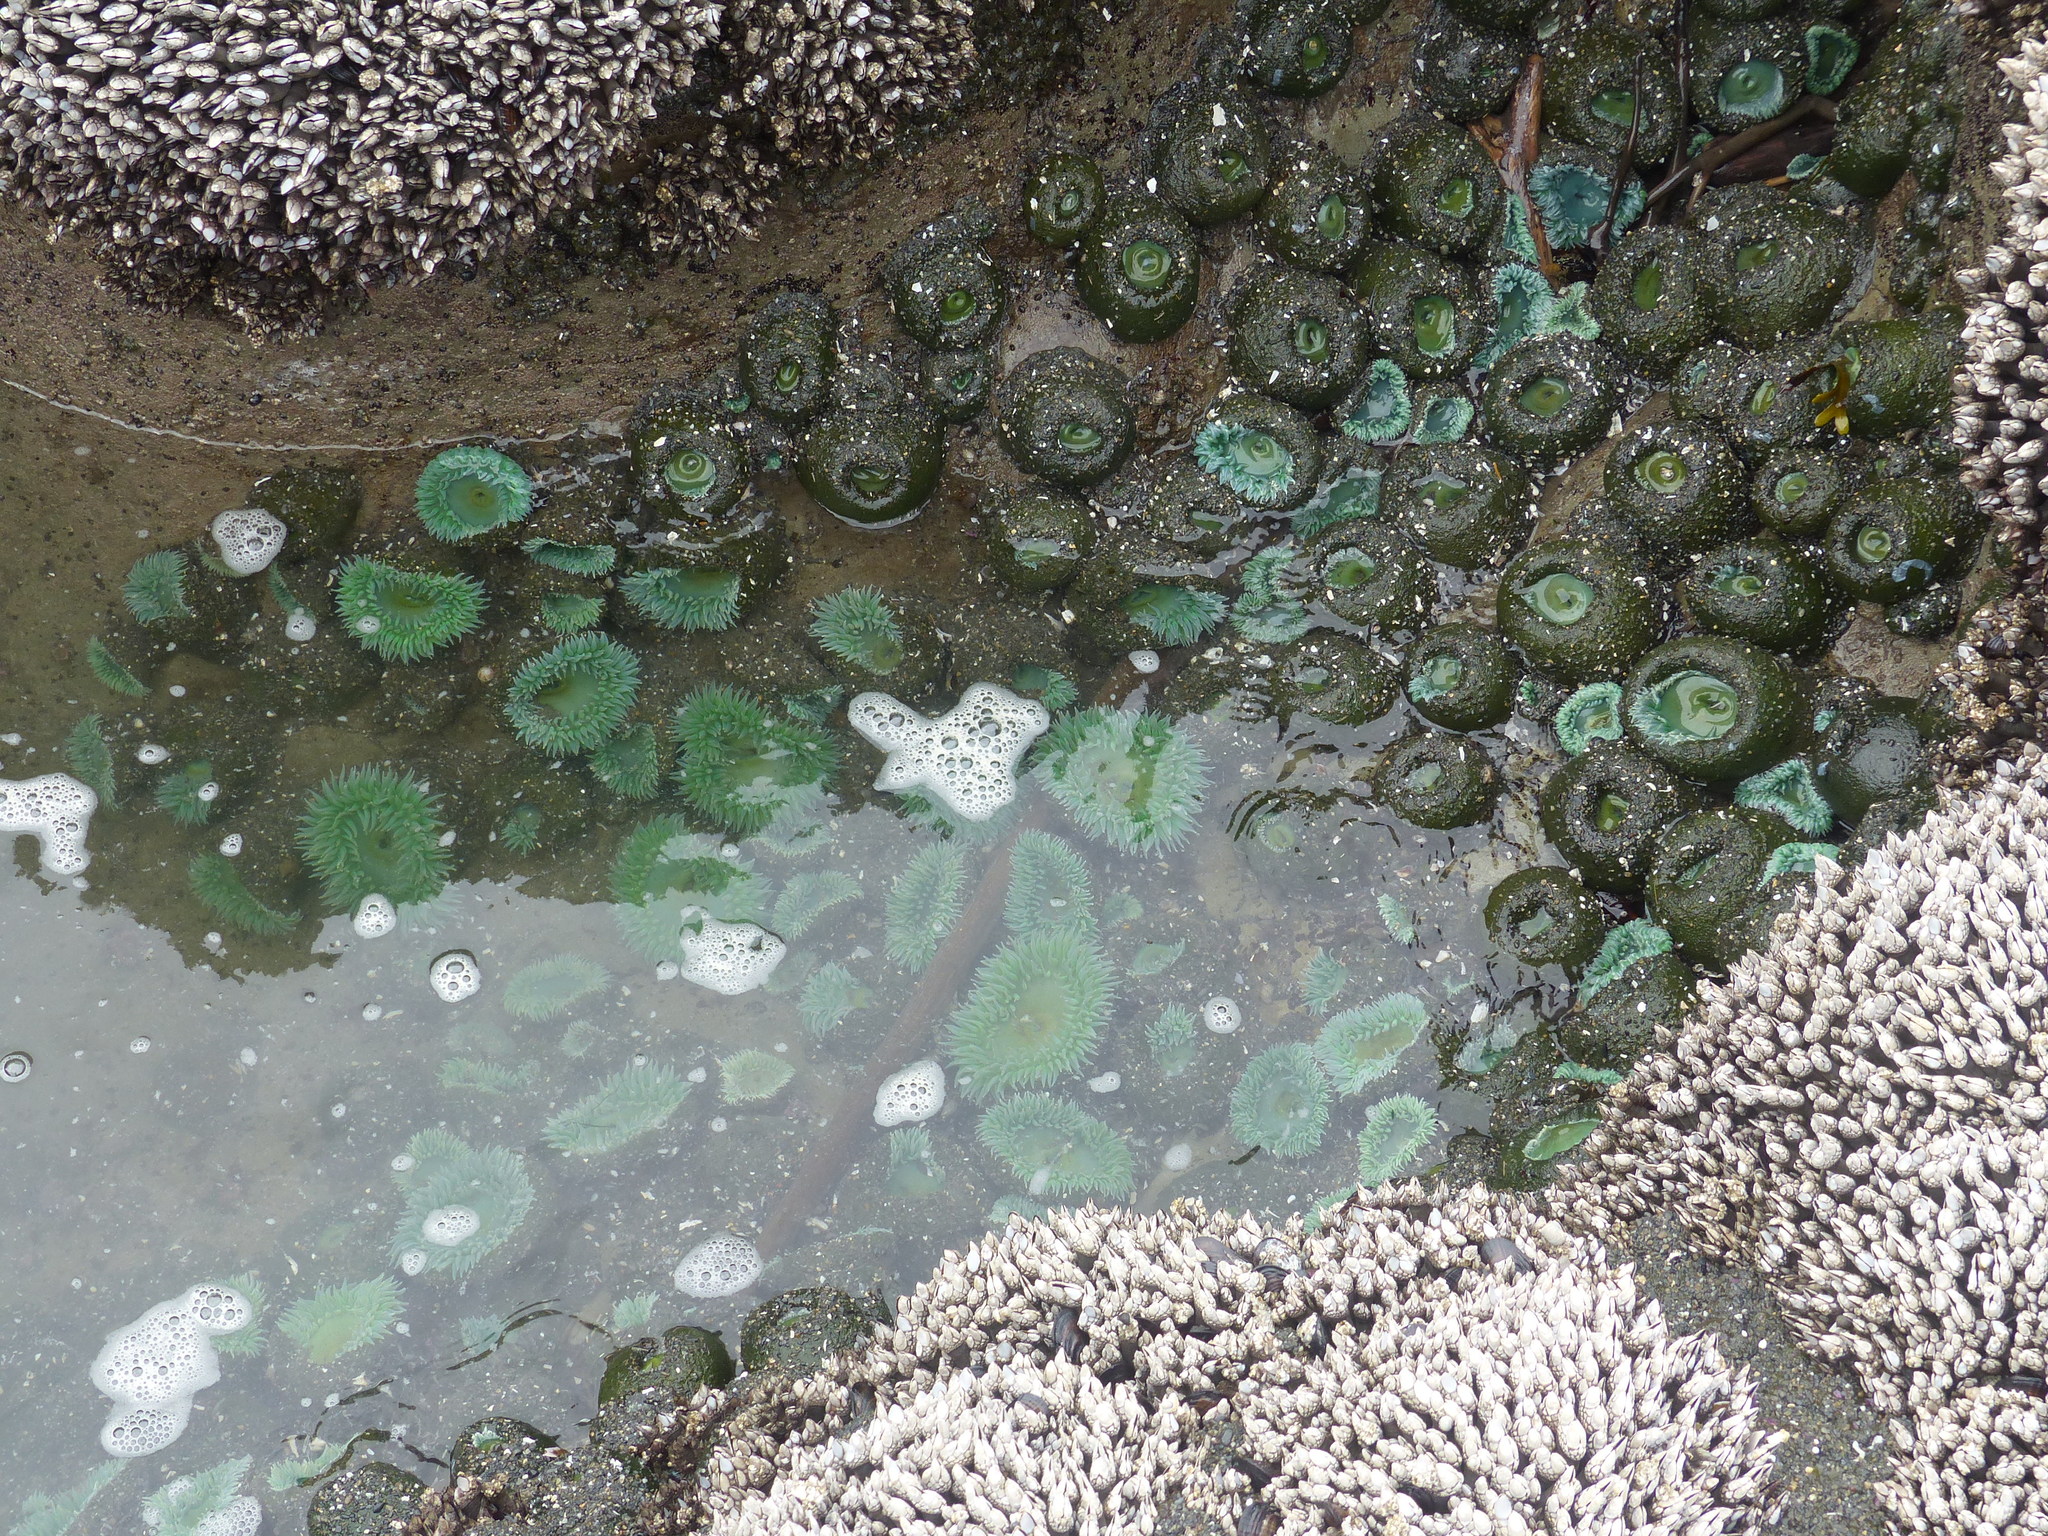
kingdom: Animalia
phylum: Cnidaria
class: Anthozoa
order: Actiniaria
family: Actiniidae
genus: Anthopleura
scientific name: Anthopleura xanthogrammica
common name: Giant green anemone
